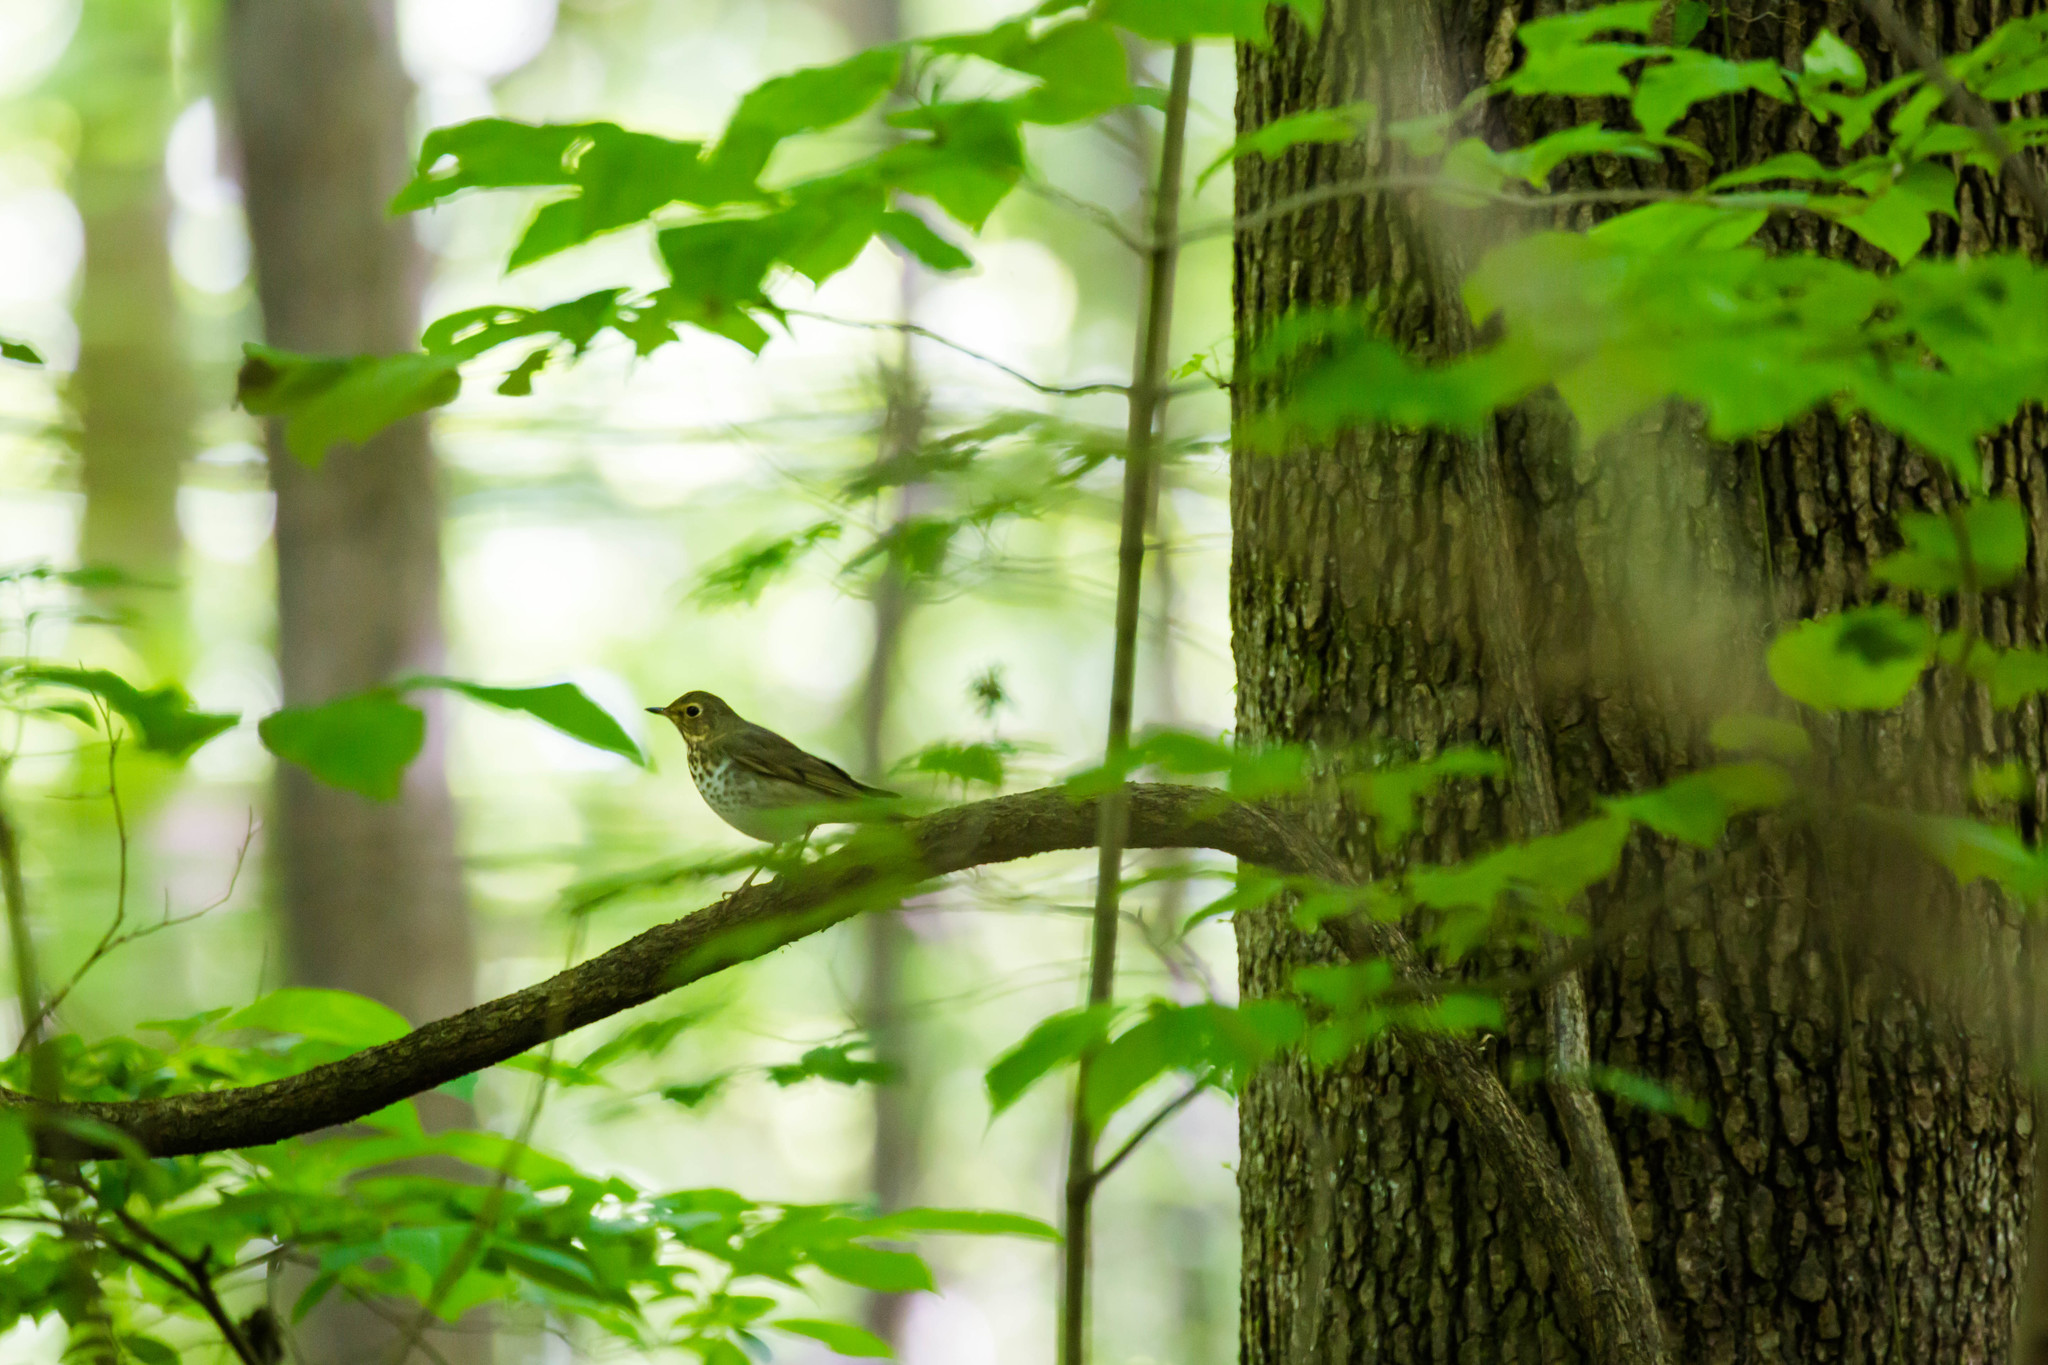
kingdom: Animalia
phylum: Chordata
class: Aves
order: Passeriformes
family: Turdidae
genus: Catharus
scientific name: Catharus ustulatus
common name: Swainson's thrush
